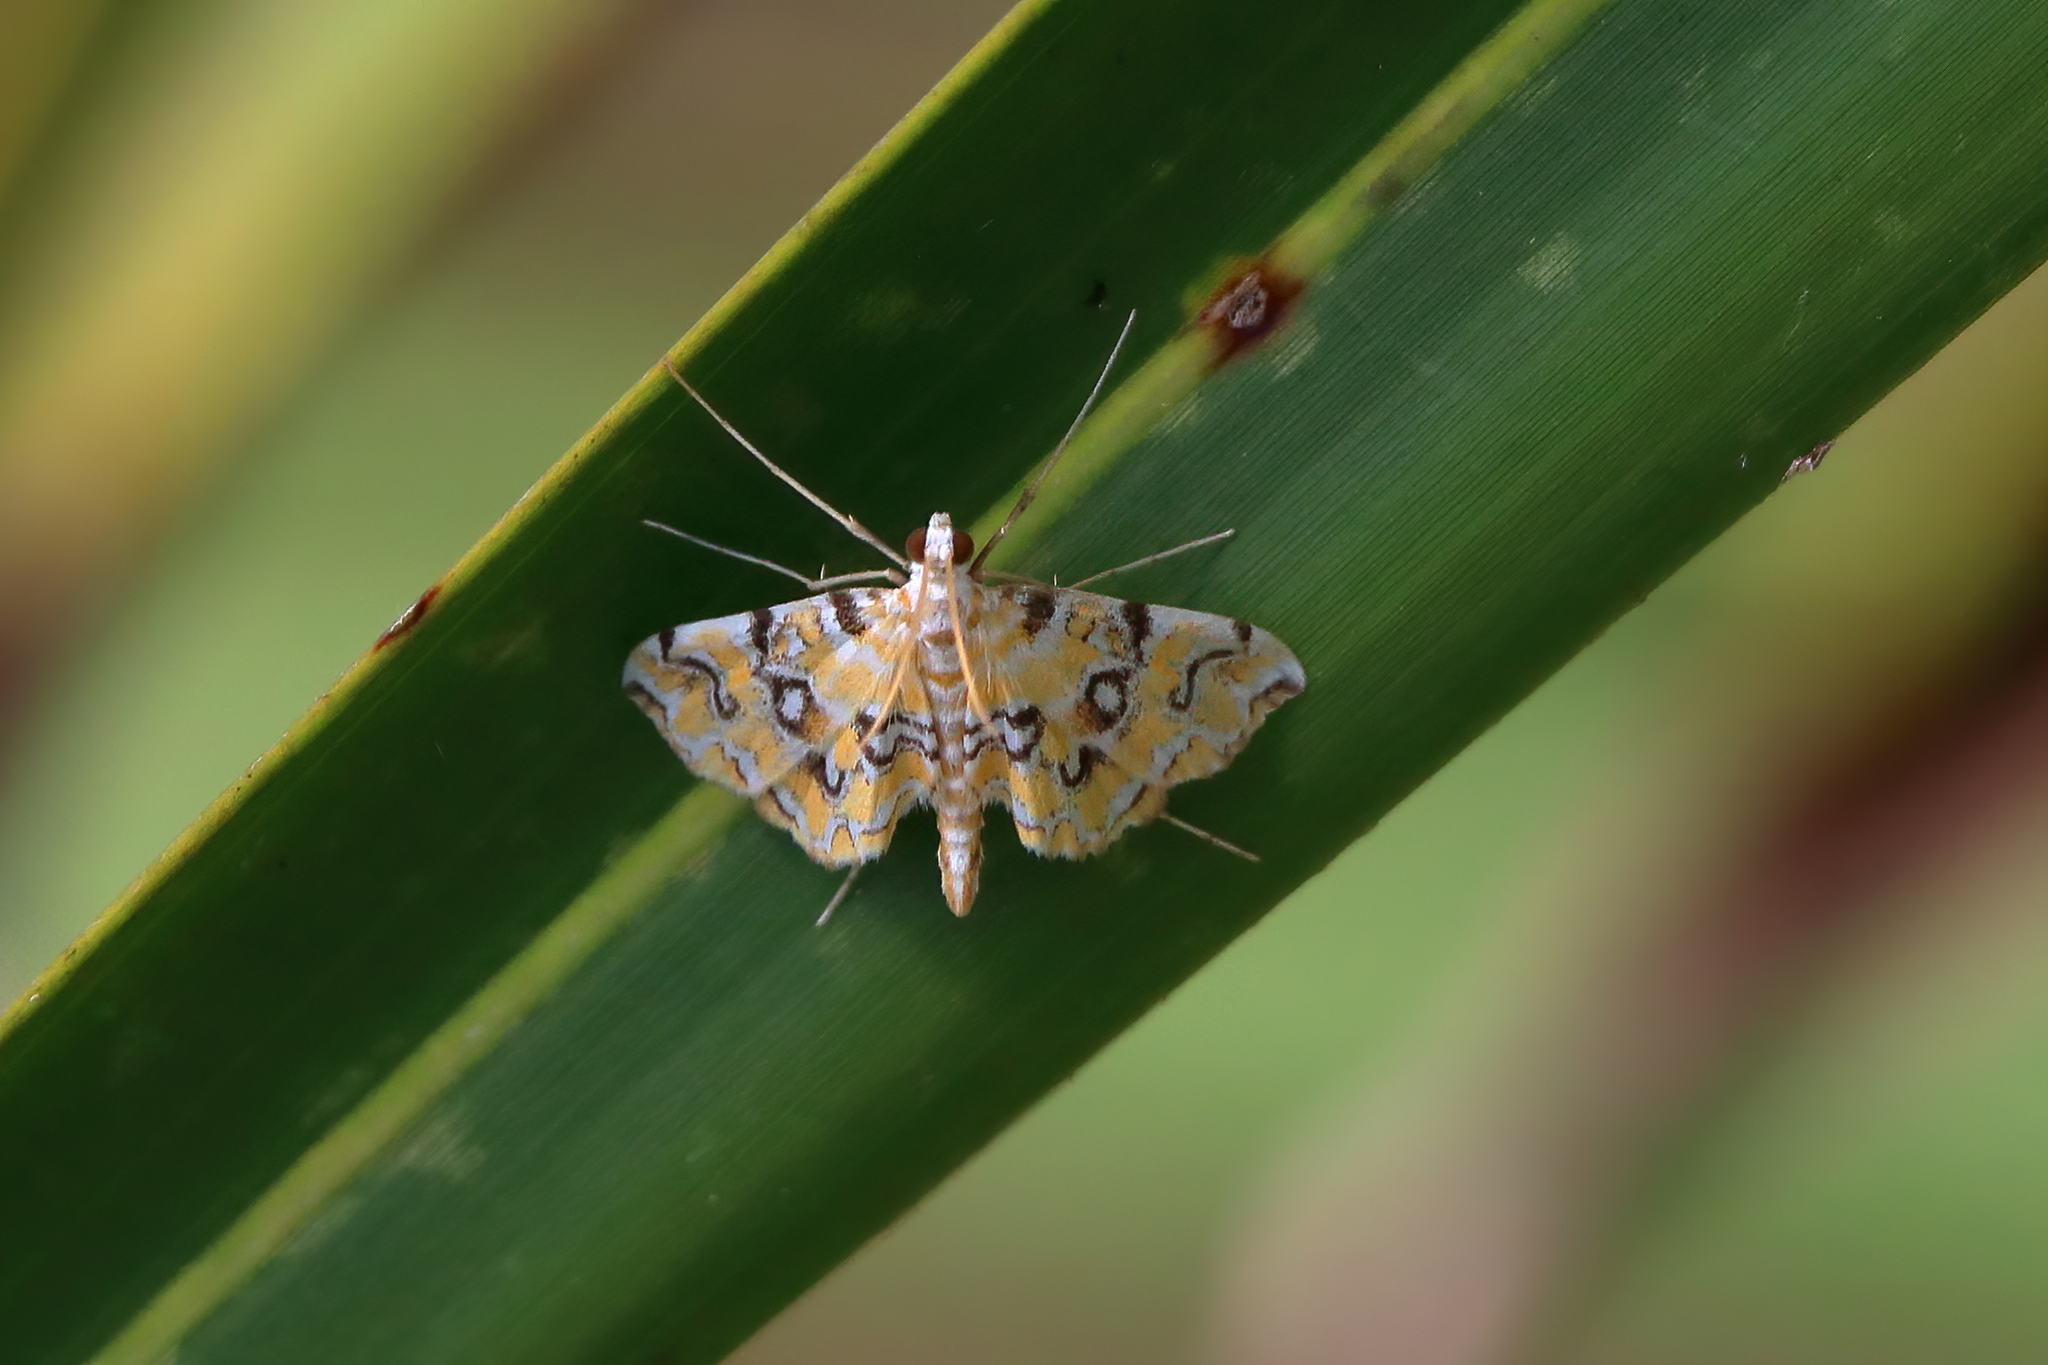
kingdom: Animalia
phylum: Arthropoda
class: Insecta
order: Lepidoptera
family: Crambidae
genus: Elophila
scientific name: Elophila icciusalis
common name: Pondside pyralid moth
